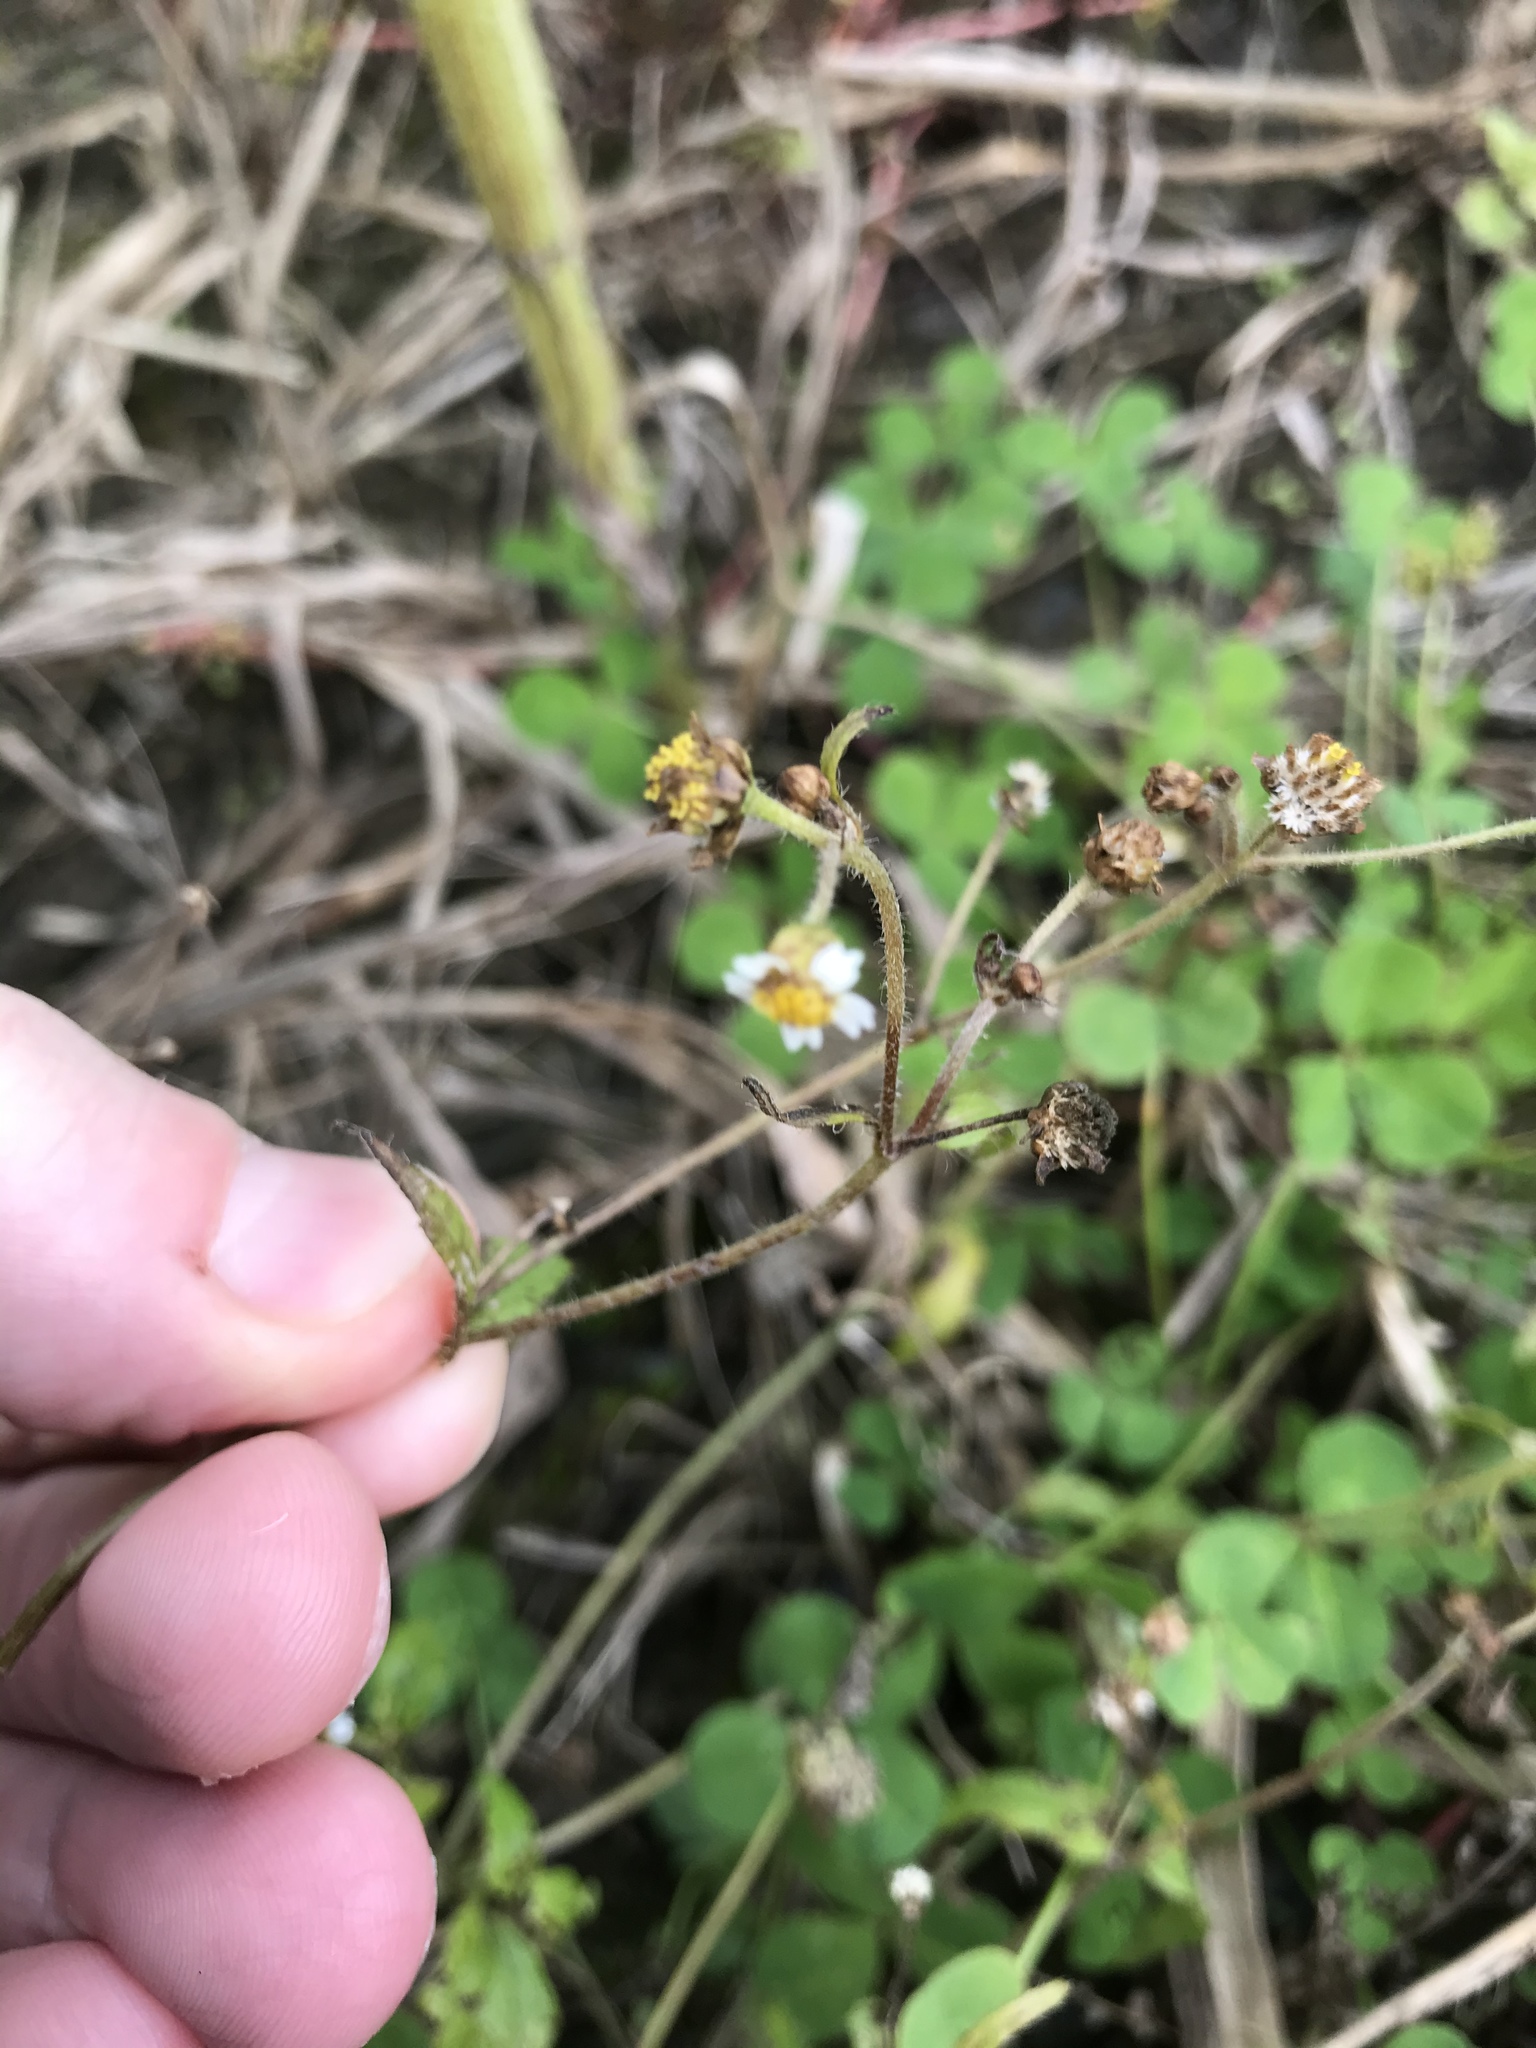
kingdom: Plantae
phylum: Tracheophyta
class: Magnoliopsida
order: Asterales
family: Asteraceae
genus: Galinsoga
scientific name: Galinsoga quadriradiata
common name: Shaggy soldier
